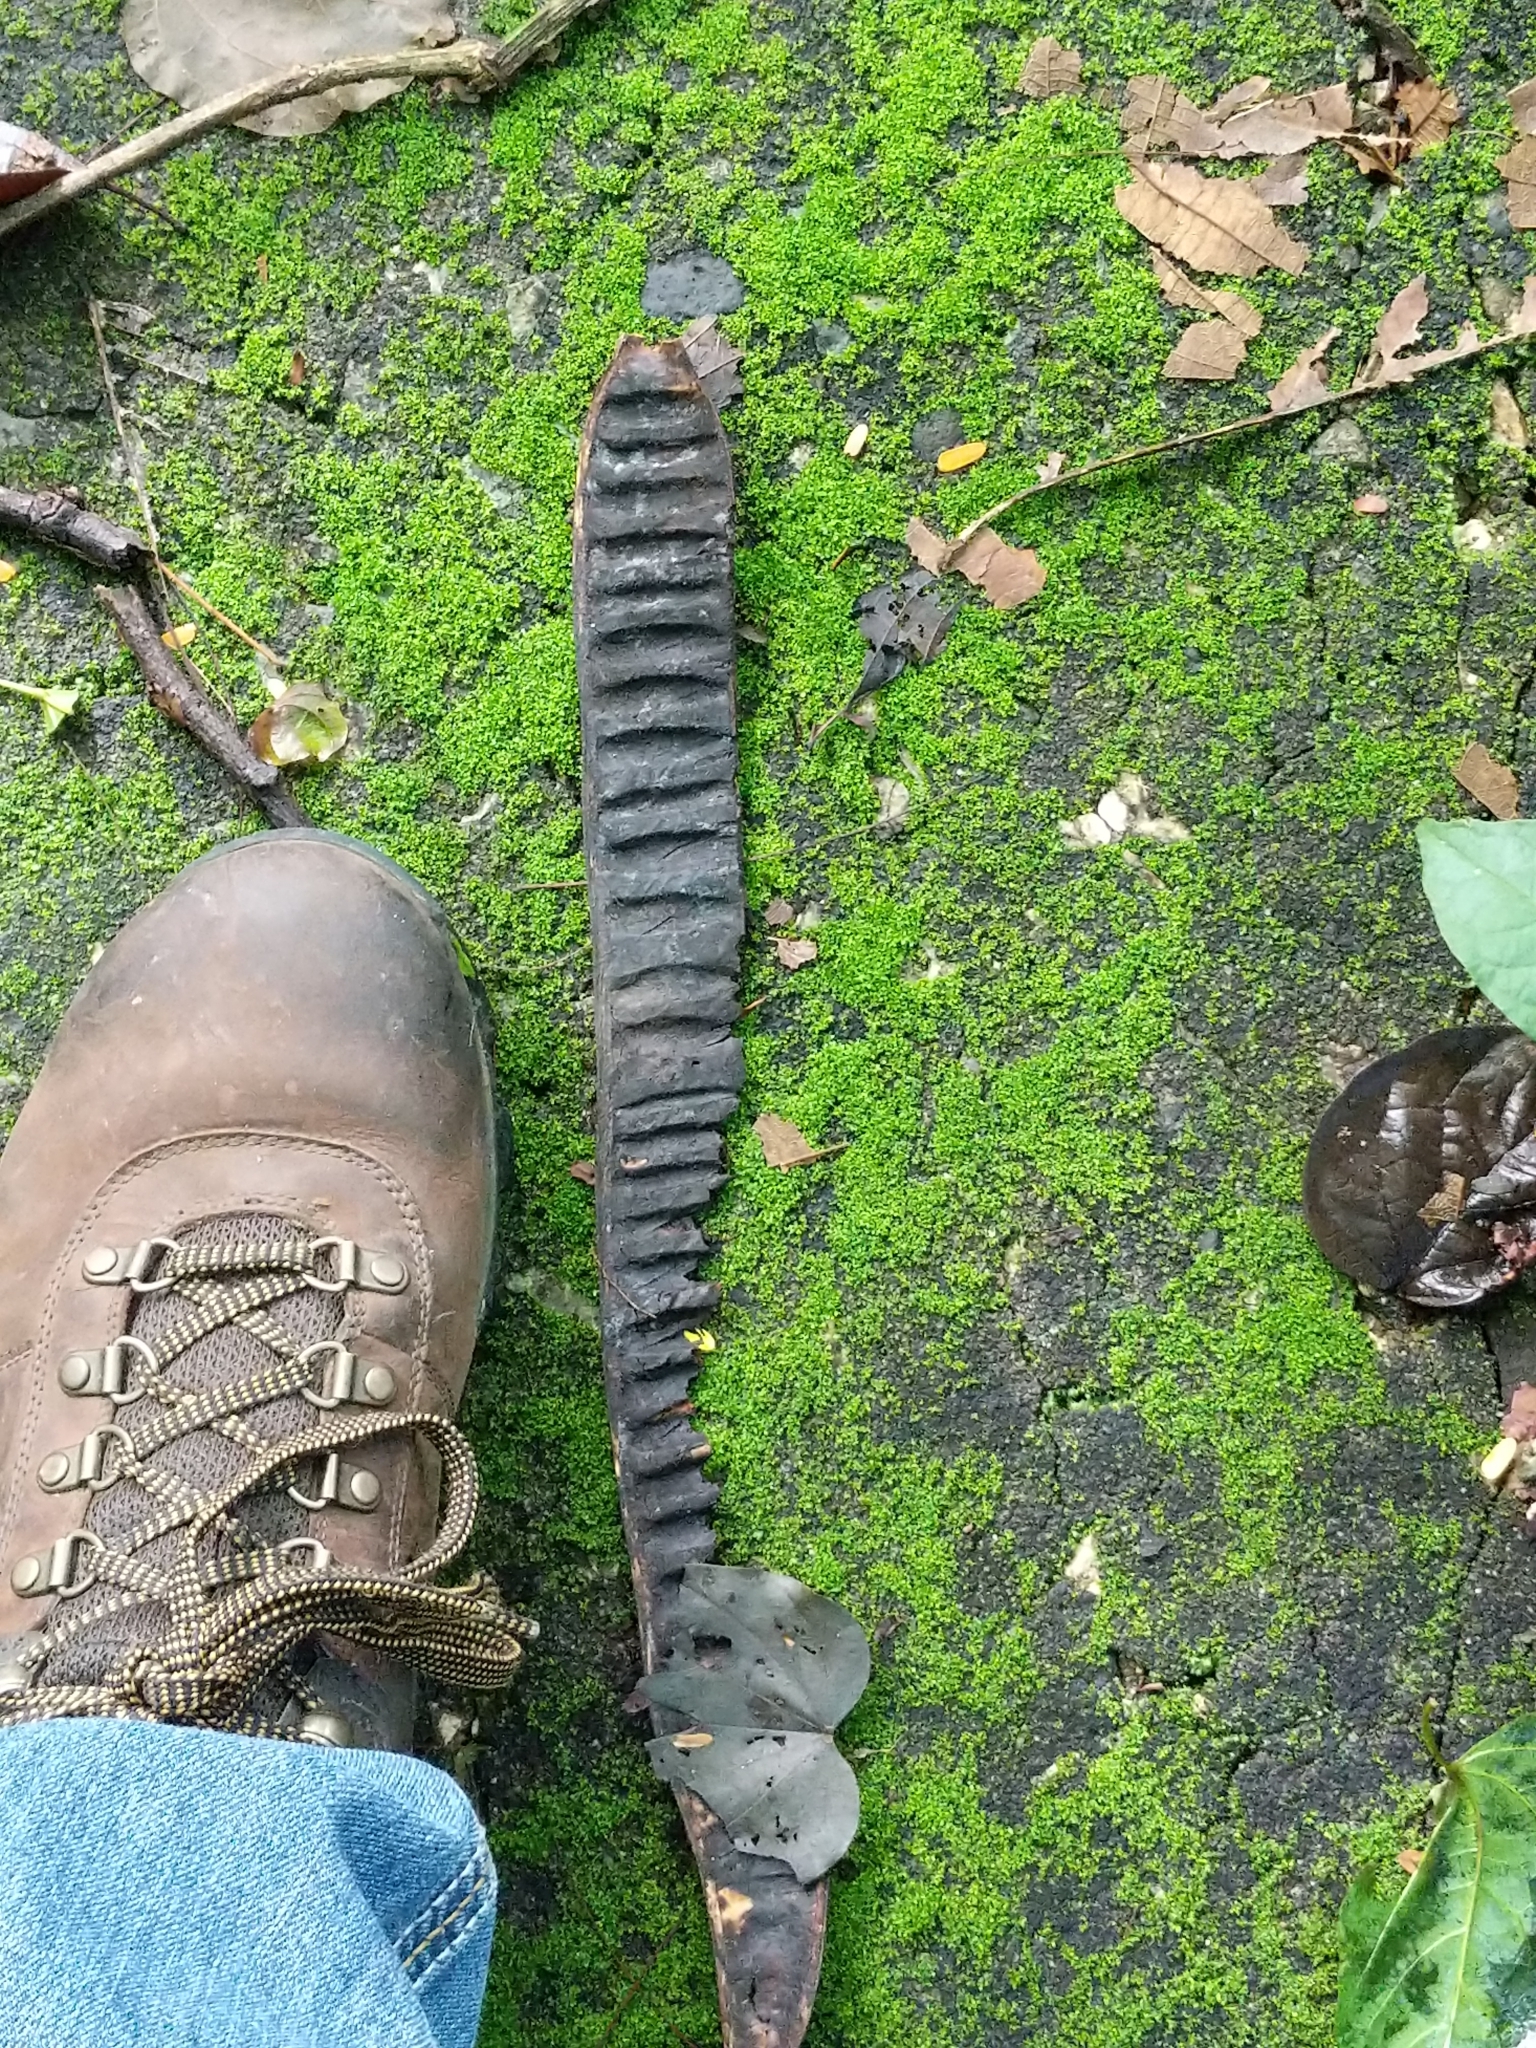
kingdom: Plantae
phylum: Tracheophyta
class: Magnoliopsida
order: Fabales
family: Fabaceae
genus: Delonix
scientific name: Delonix regia
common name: Royal poinciana
